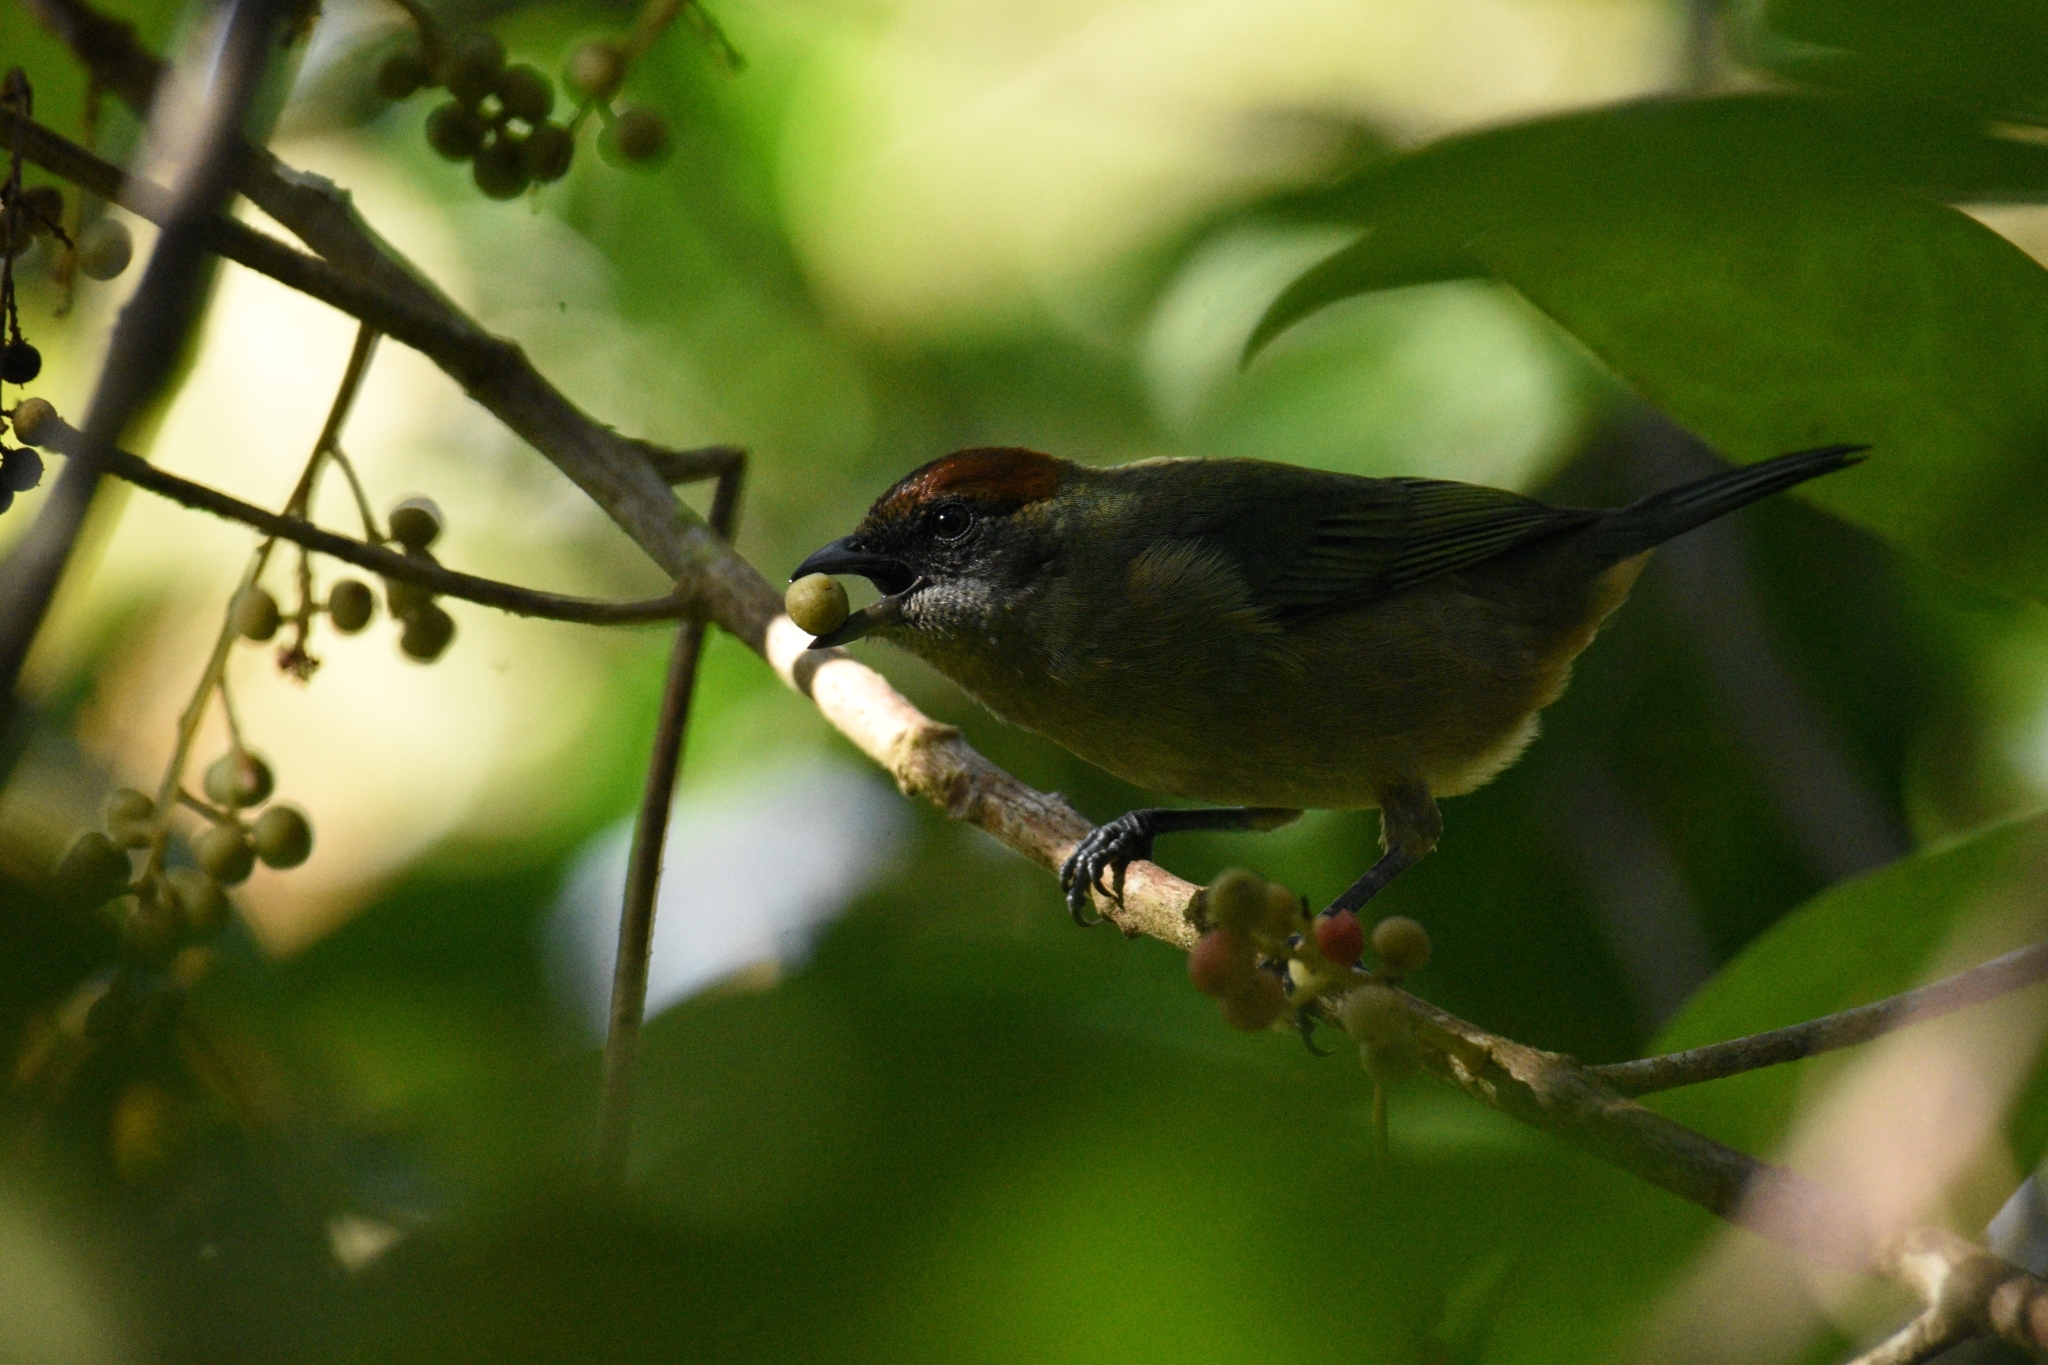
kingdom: Animalia
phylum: Chordata
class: Aves
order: Passeriformes
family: Thraupidae
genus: Stilpnia
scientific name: Stilpnia cucullata
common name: Lesser antillean tanager
